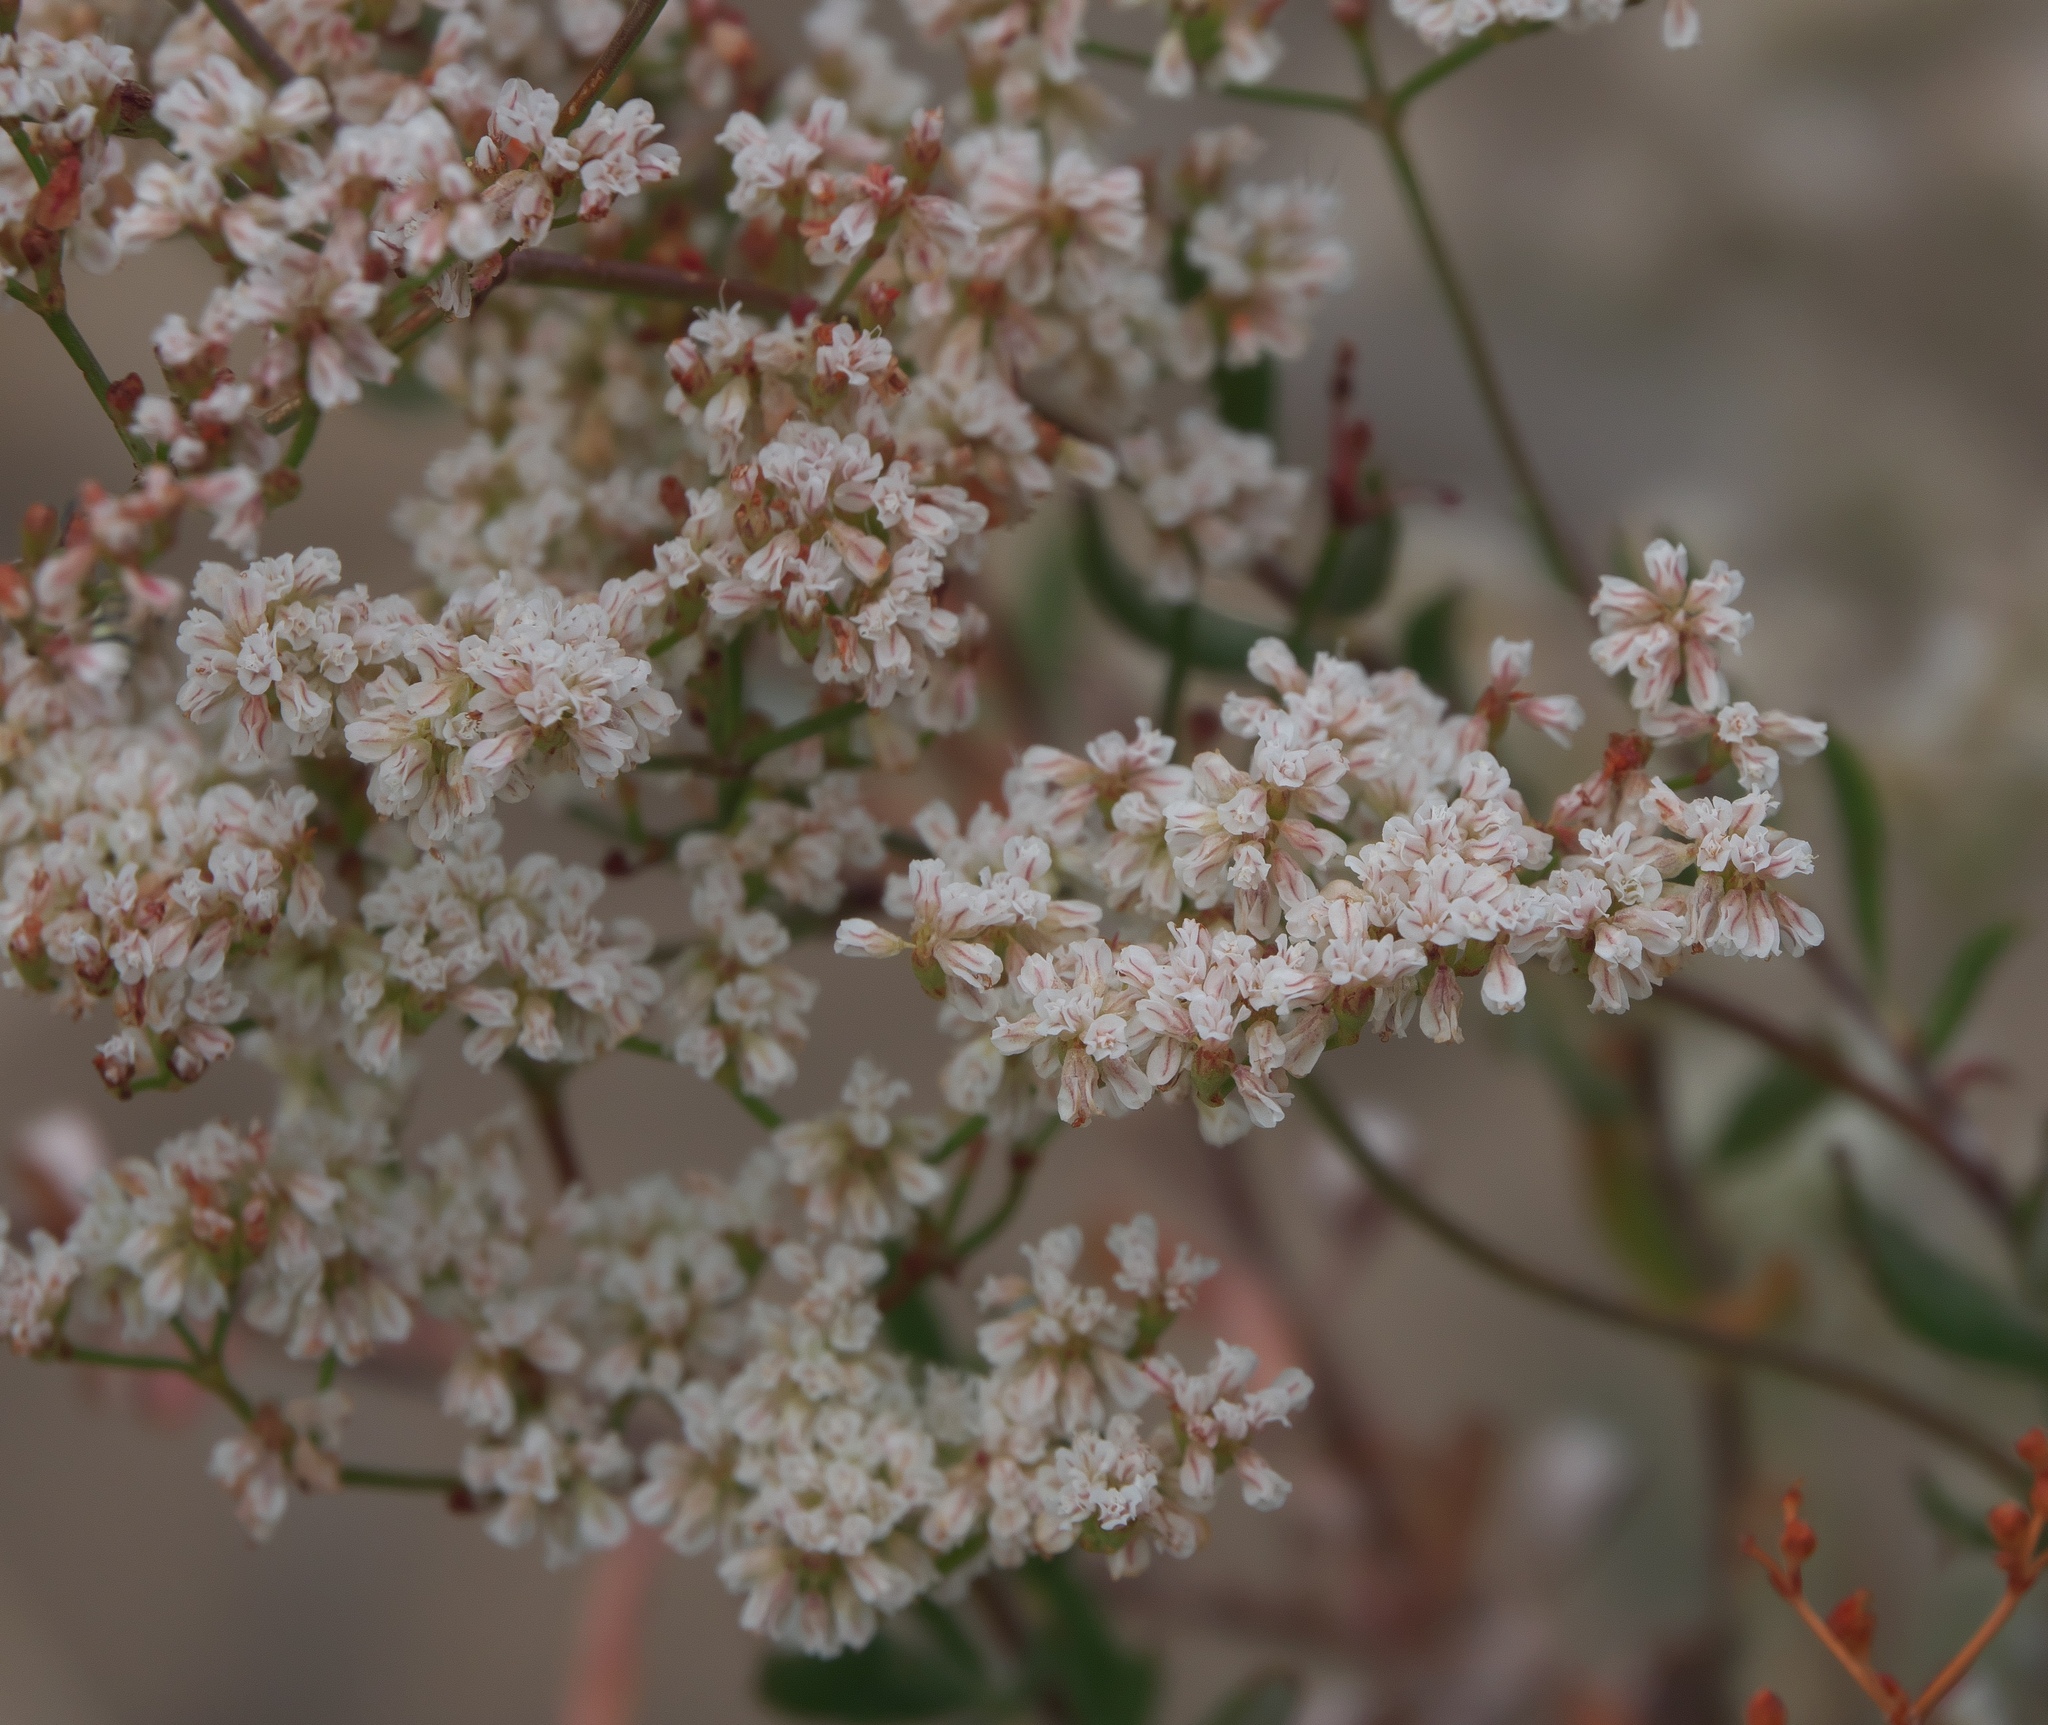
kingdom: Plantae
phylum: Tracheophyta
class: Magnoliopsida
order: Caryophyllales
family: Polygonaceae
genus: Eriogonum
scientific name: Eriogonum microtheca
